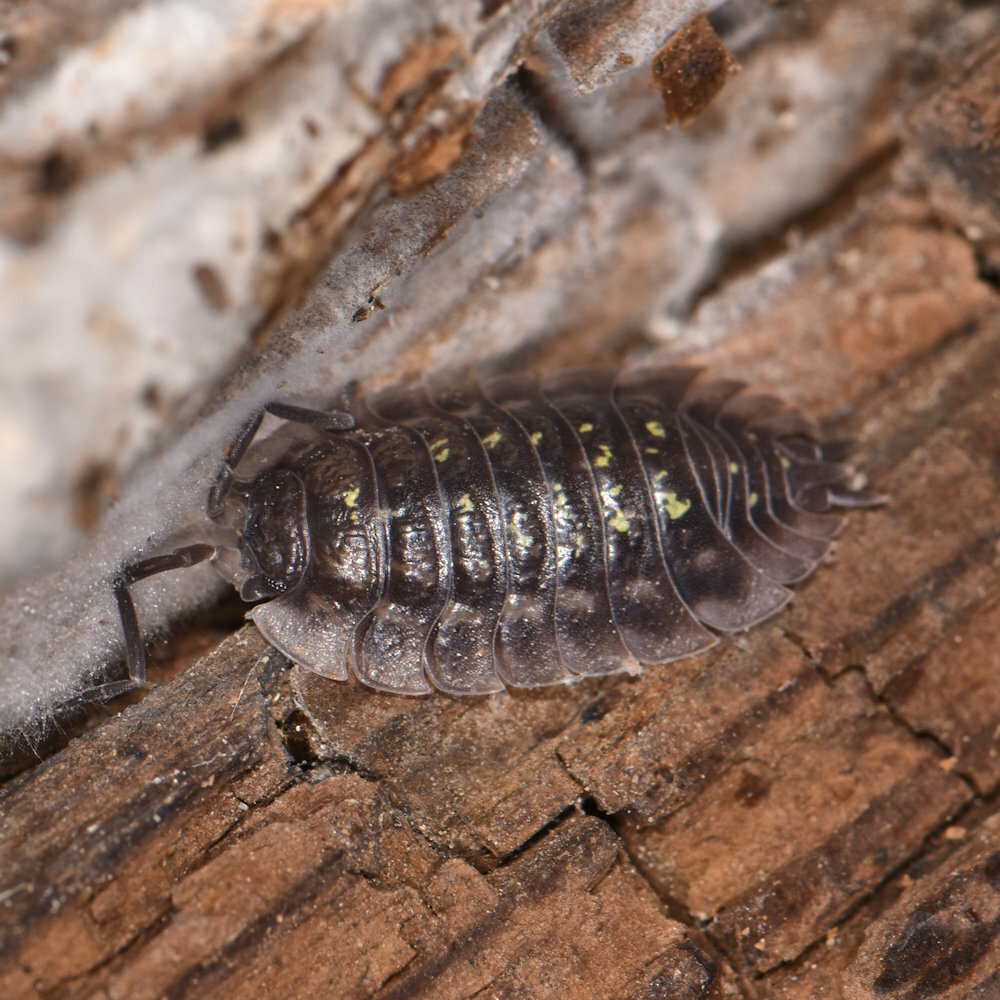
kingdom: Animalia
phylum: Arthropoda
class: Malacostraca
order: Isopoda
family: Oniscidae
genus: Oniscus
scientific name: Oniscus asellus
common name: Common shiny woodlouse
